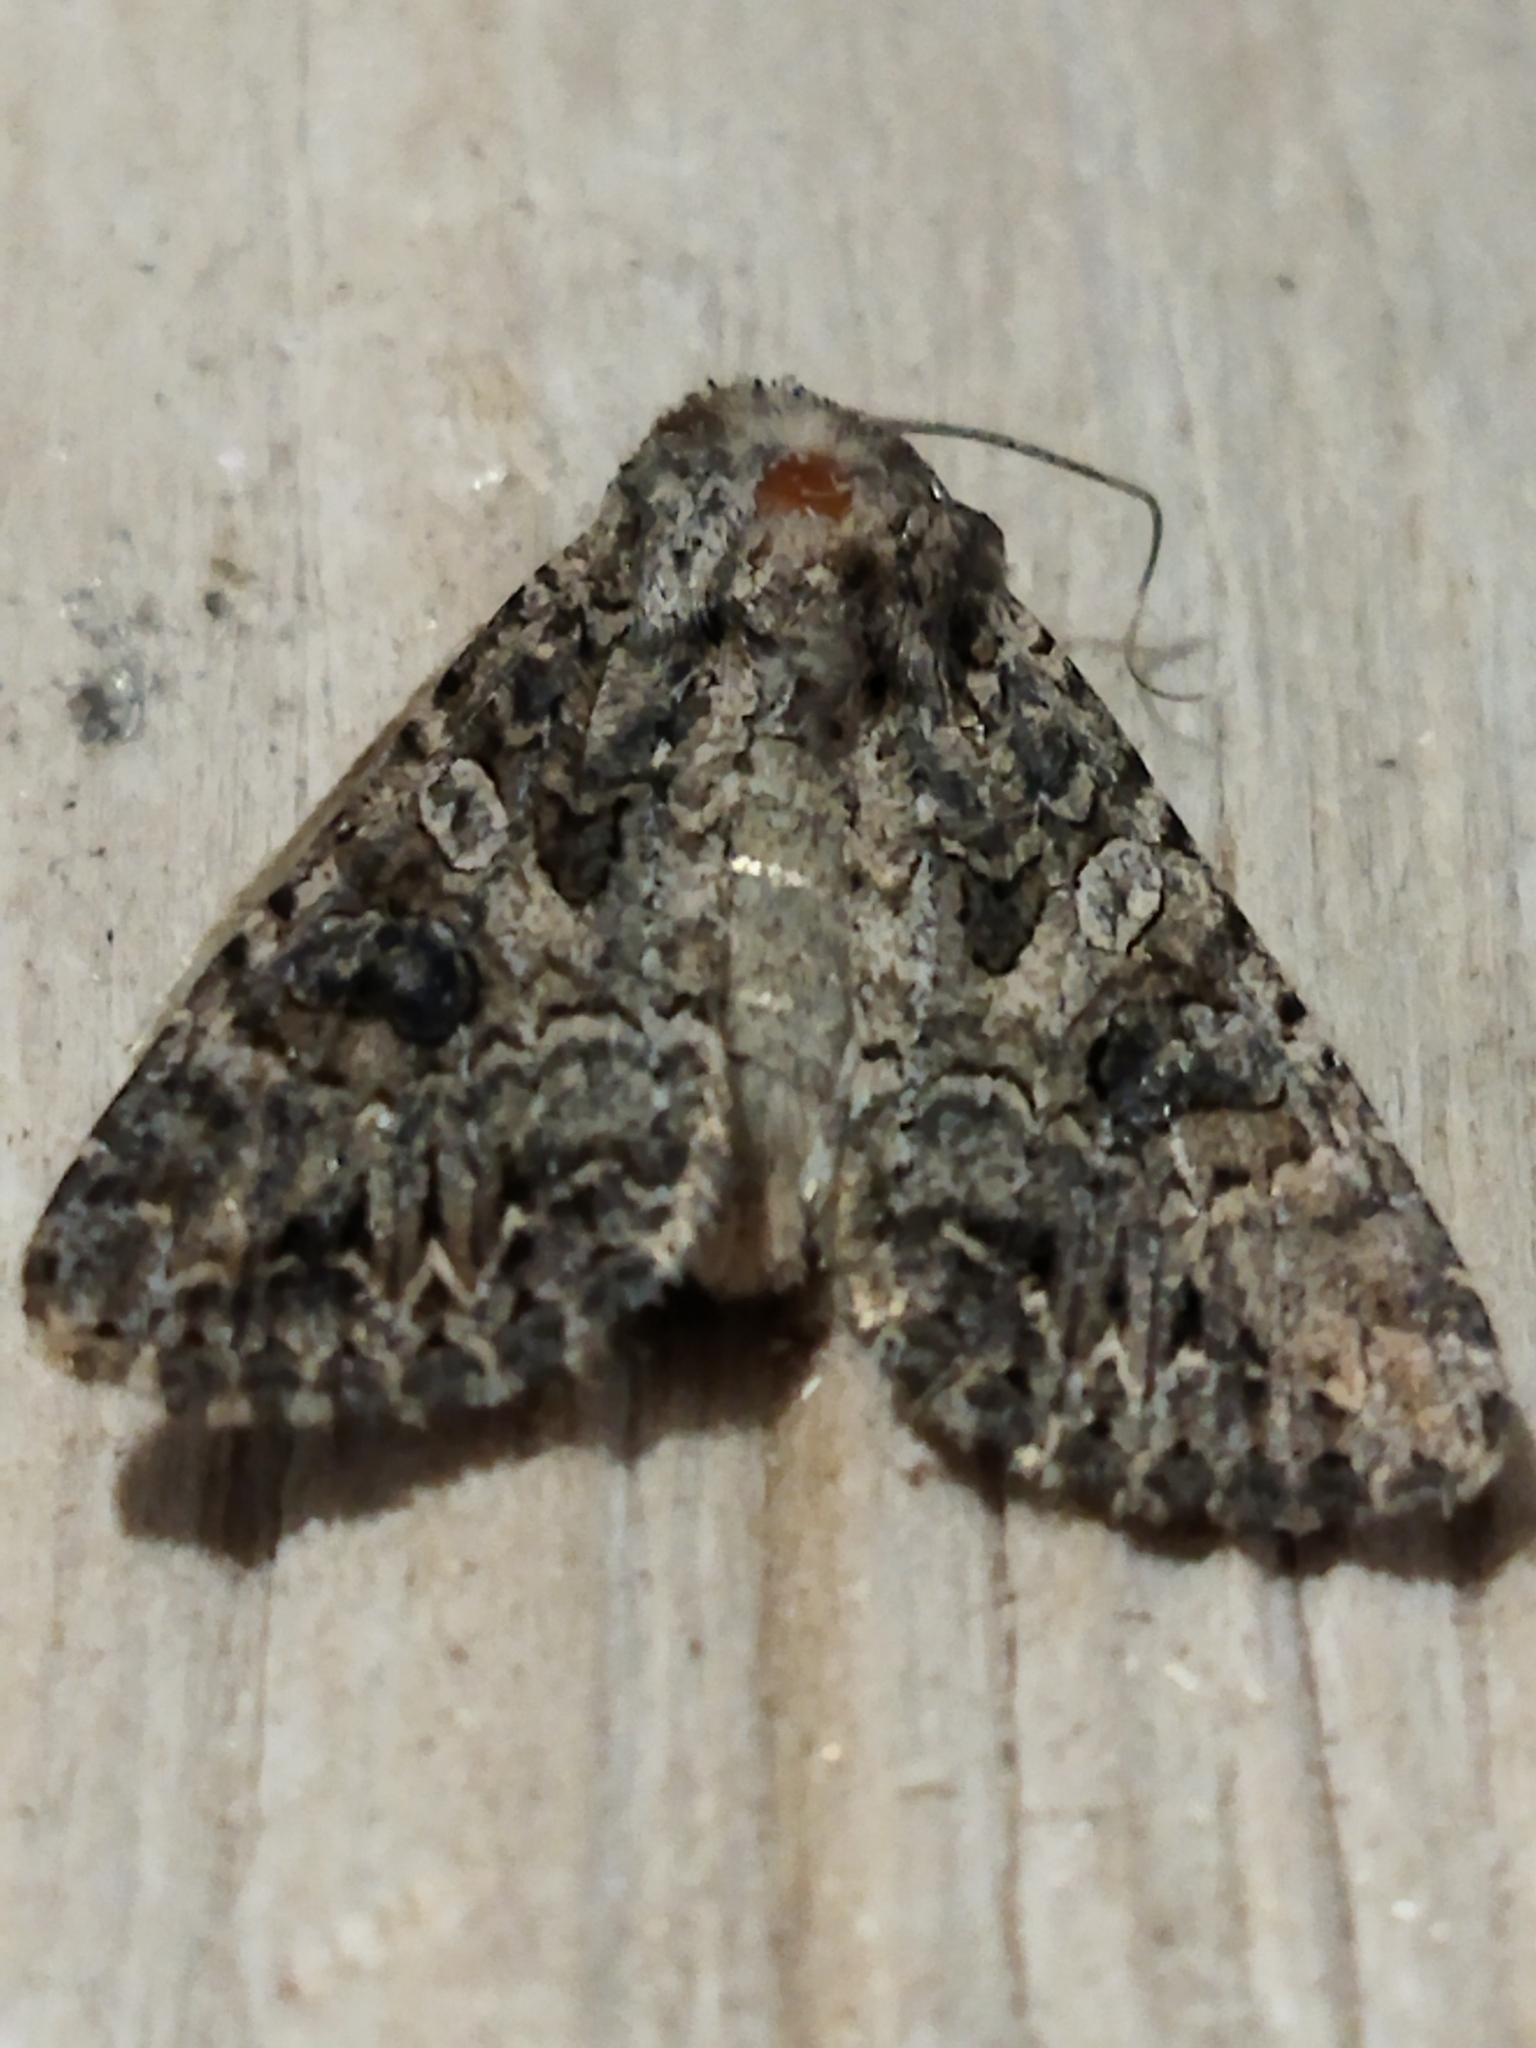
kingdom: Animalia
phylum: Arthropoda
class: Insecta
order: Lepidoptera
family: Noctuidae
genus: Anarta
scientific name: Anarta trifolii
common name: Clover cutworm moth
